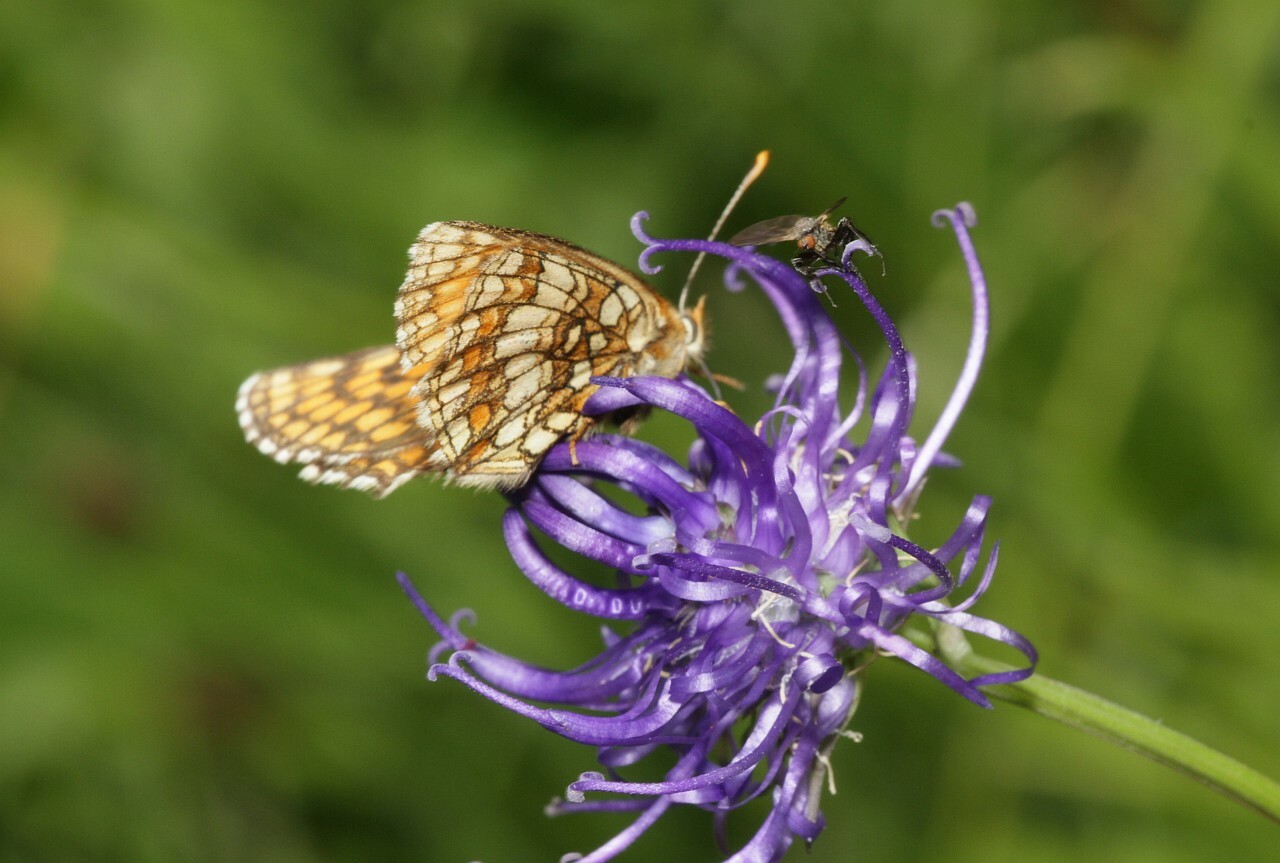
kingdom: Animalia
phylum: Arthropoda
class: Insecta
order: Lepidoptera
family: Nymphalidae
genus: Mellicta
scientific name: Mellicta aurelia
